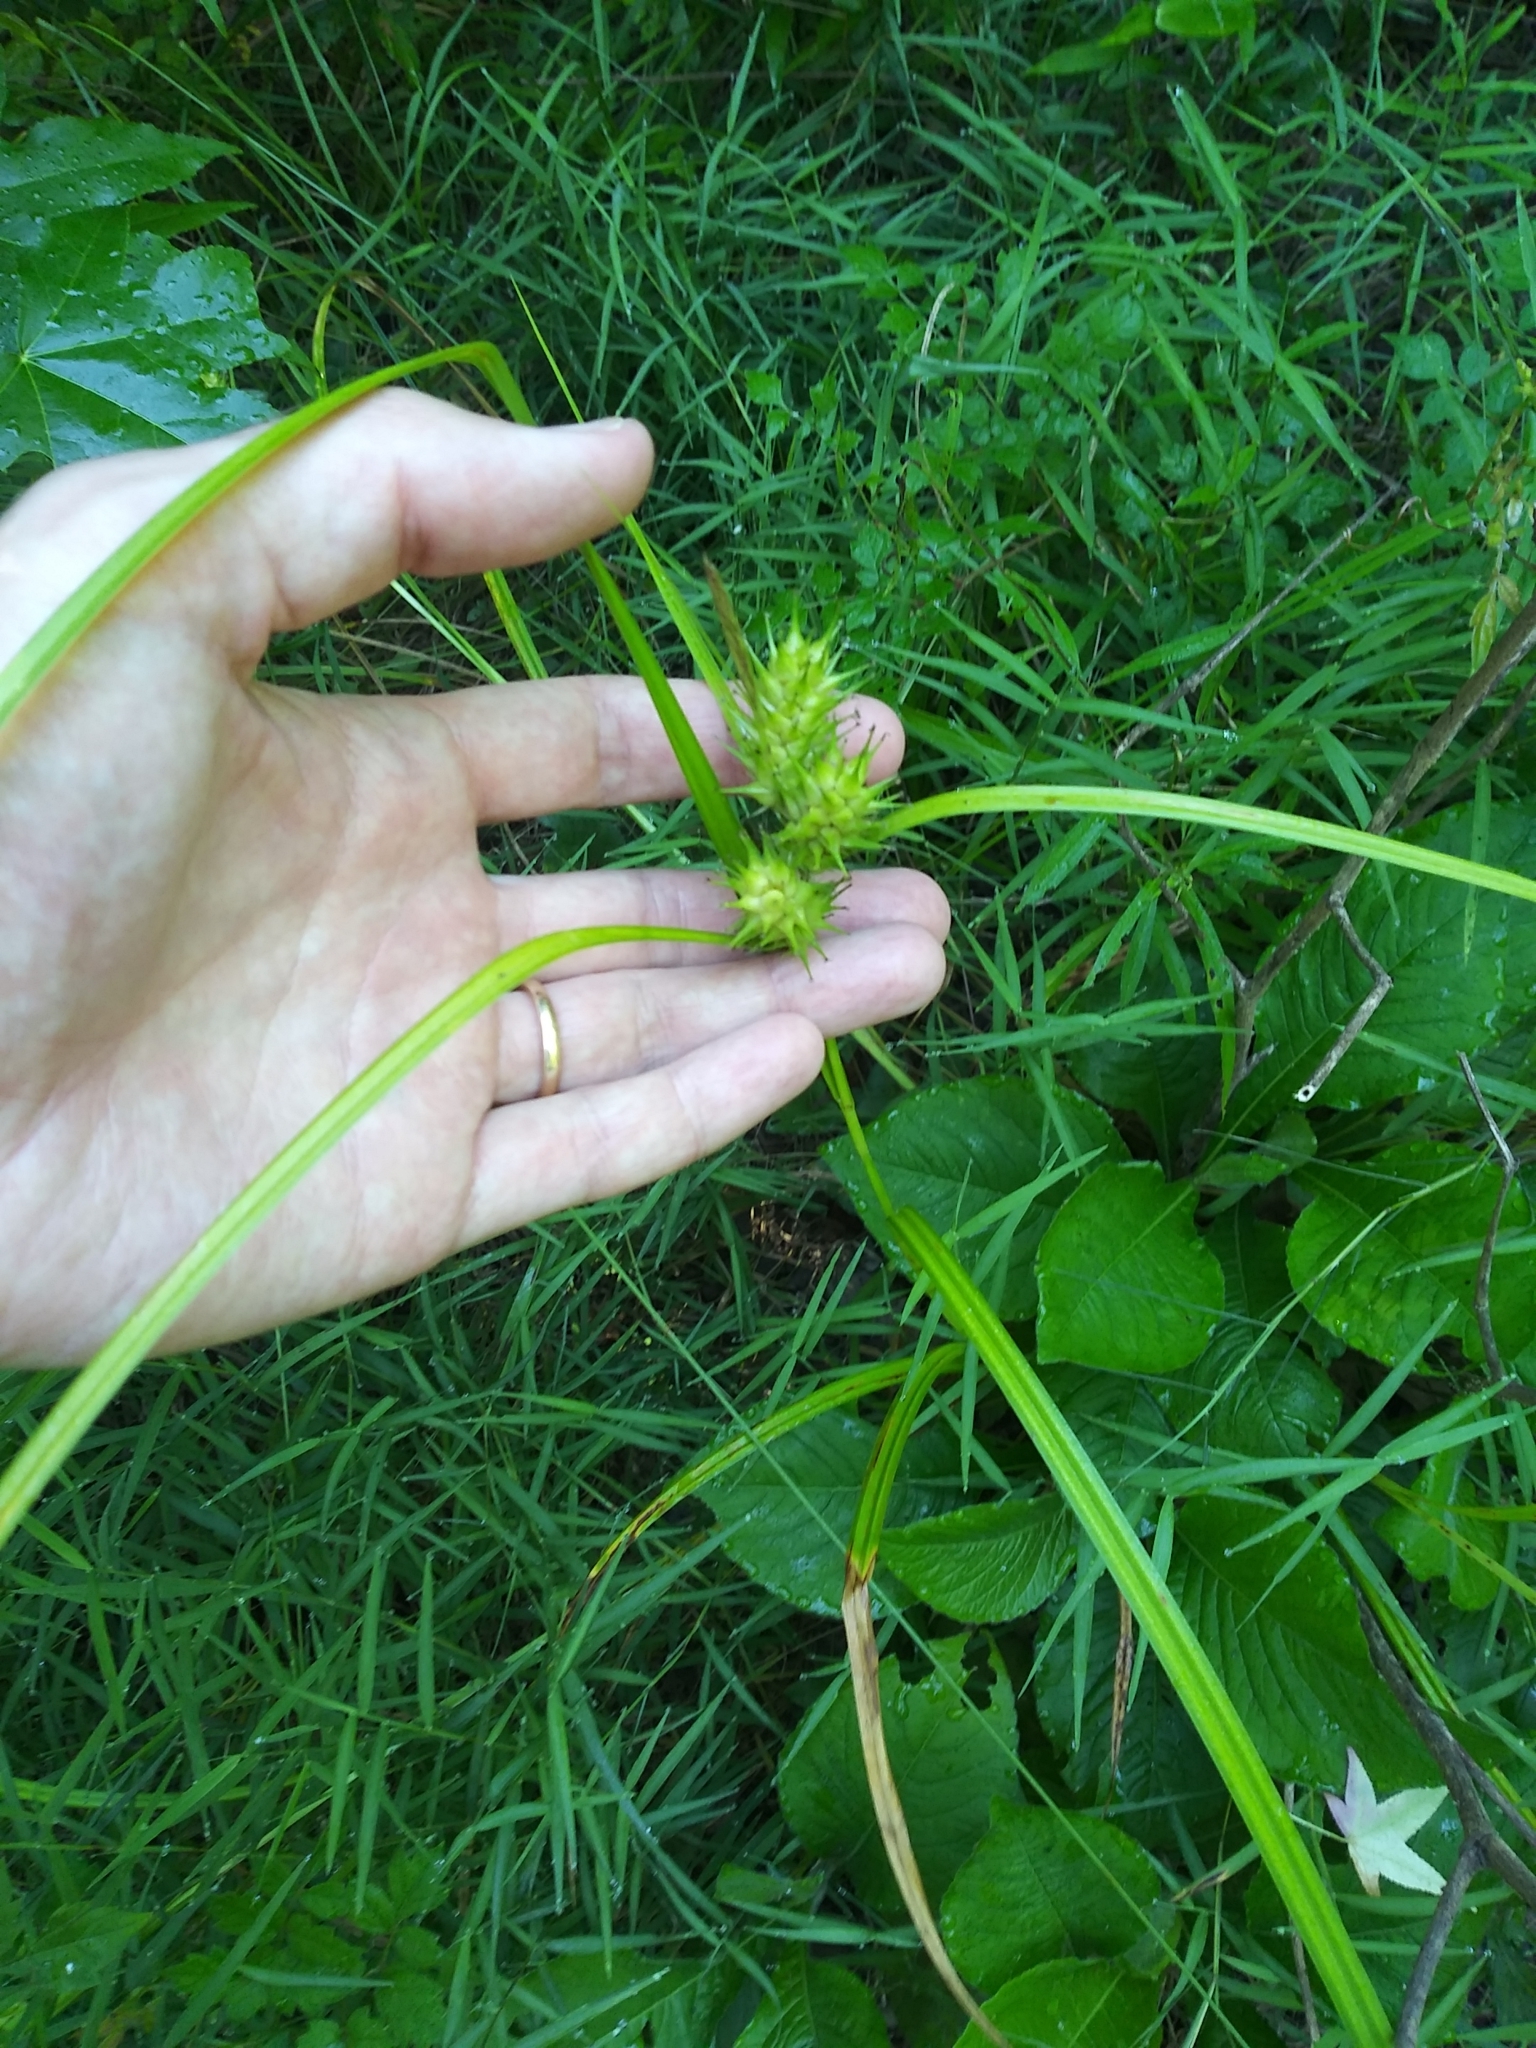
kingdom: Plantae
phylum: Tracheophyta
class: Liliopsida
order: Poales
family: Cyperaceae
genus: Carex
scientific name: Carex lupulina
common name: Hop sedge
